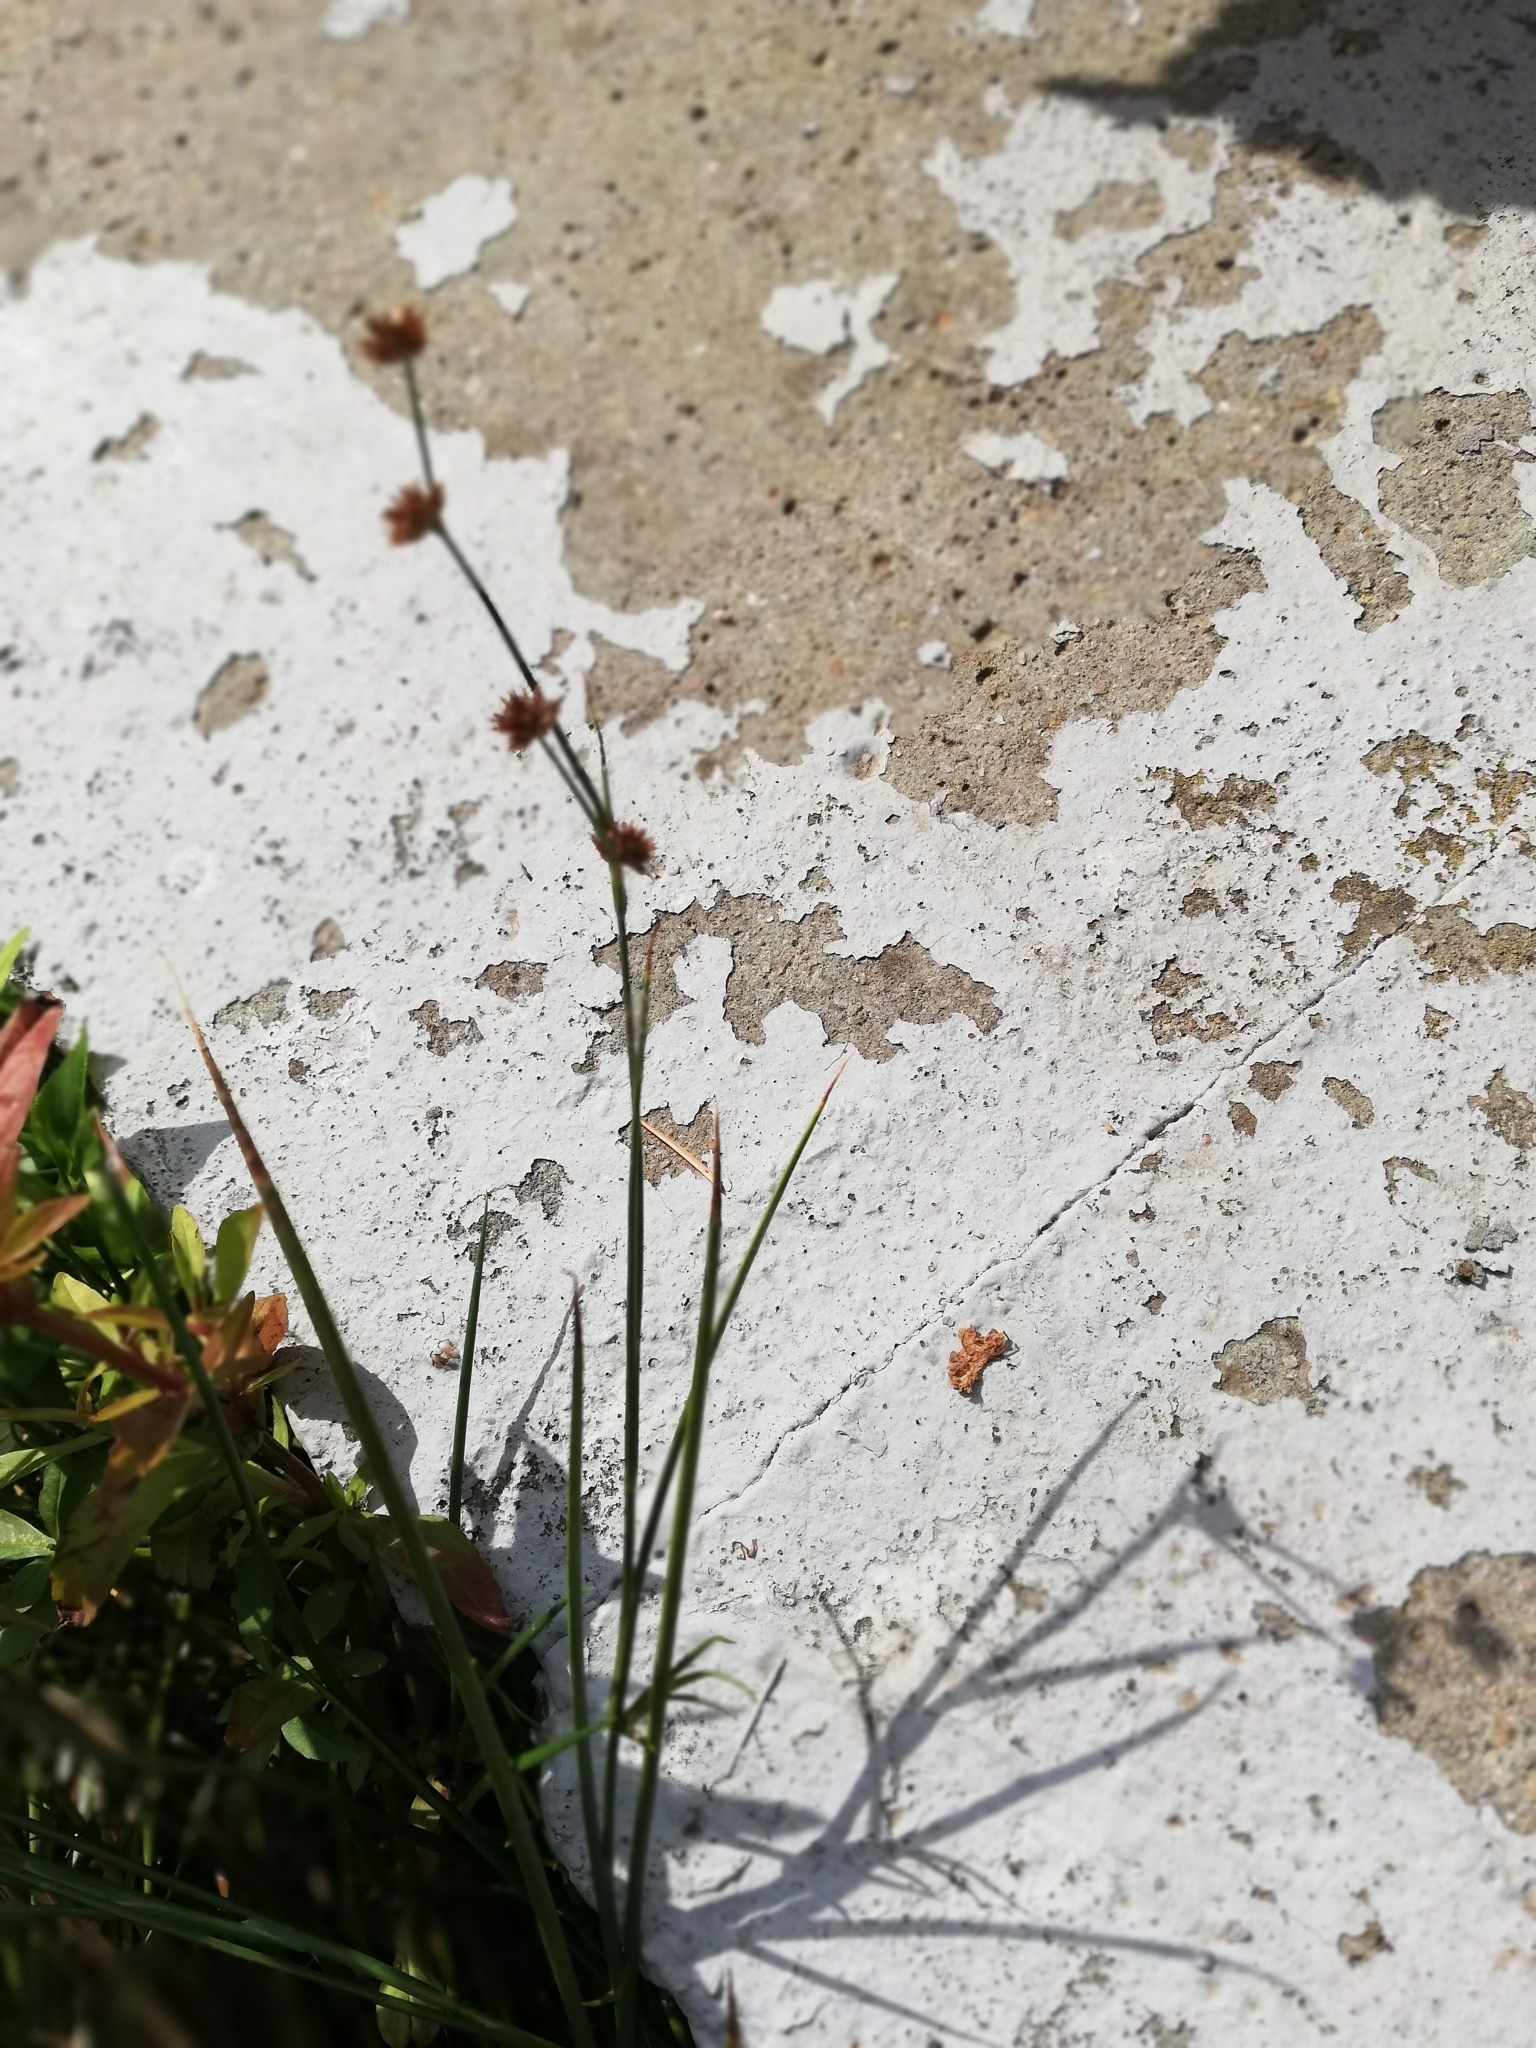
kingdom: Plantae
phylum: Tracheophyta
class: Liliopsida
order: Poales
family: Juncaceae
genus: Juncus
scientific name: Juncus articulatus
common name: Jointed rush
